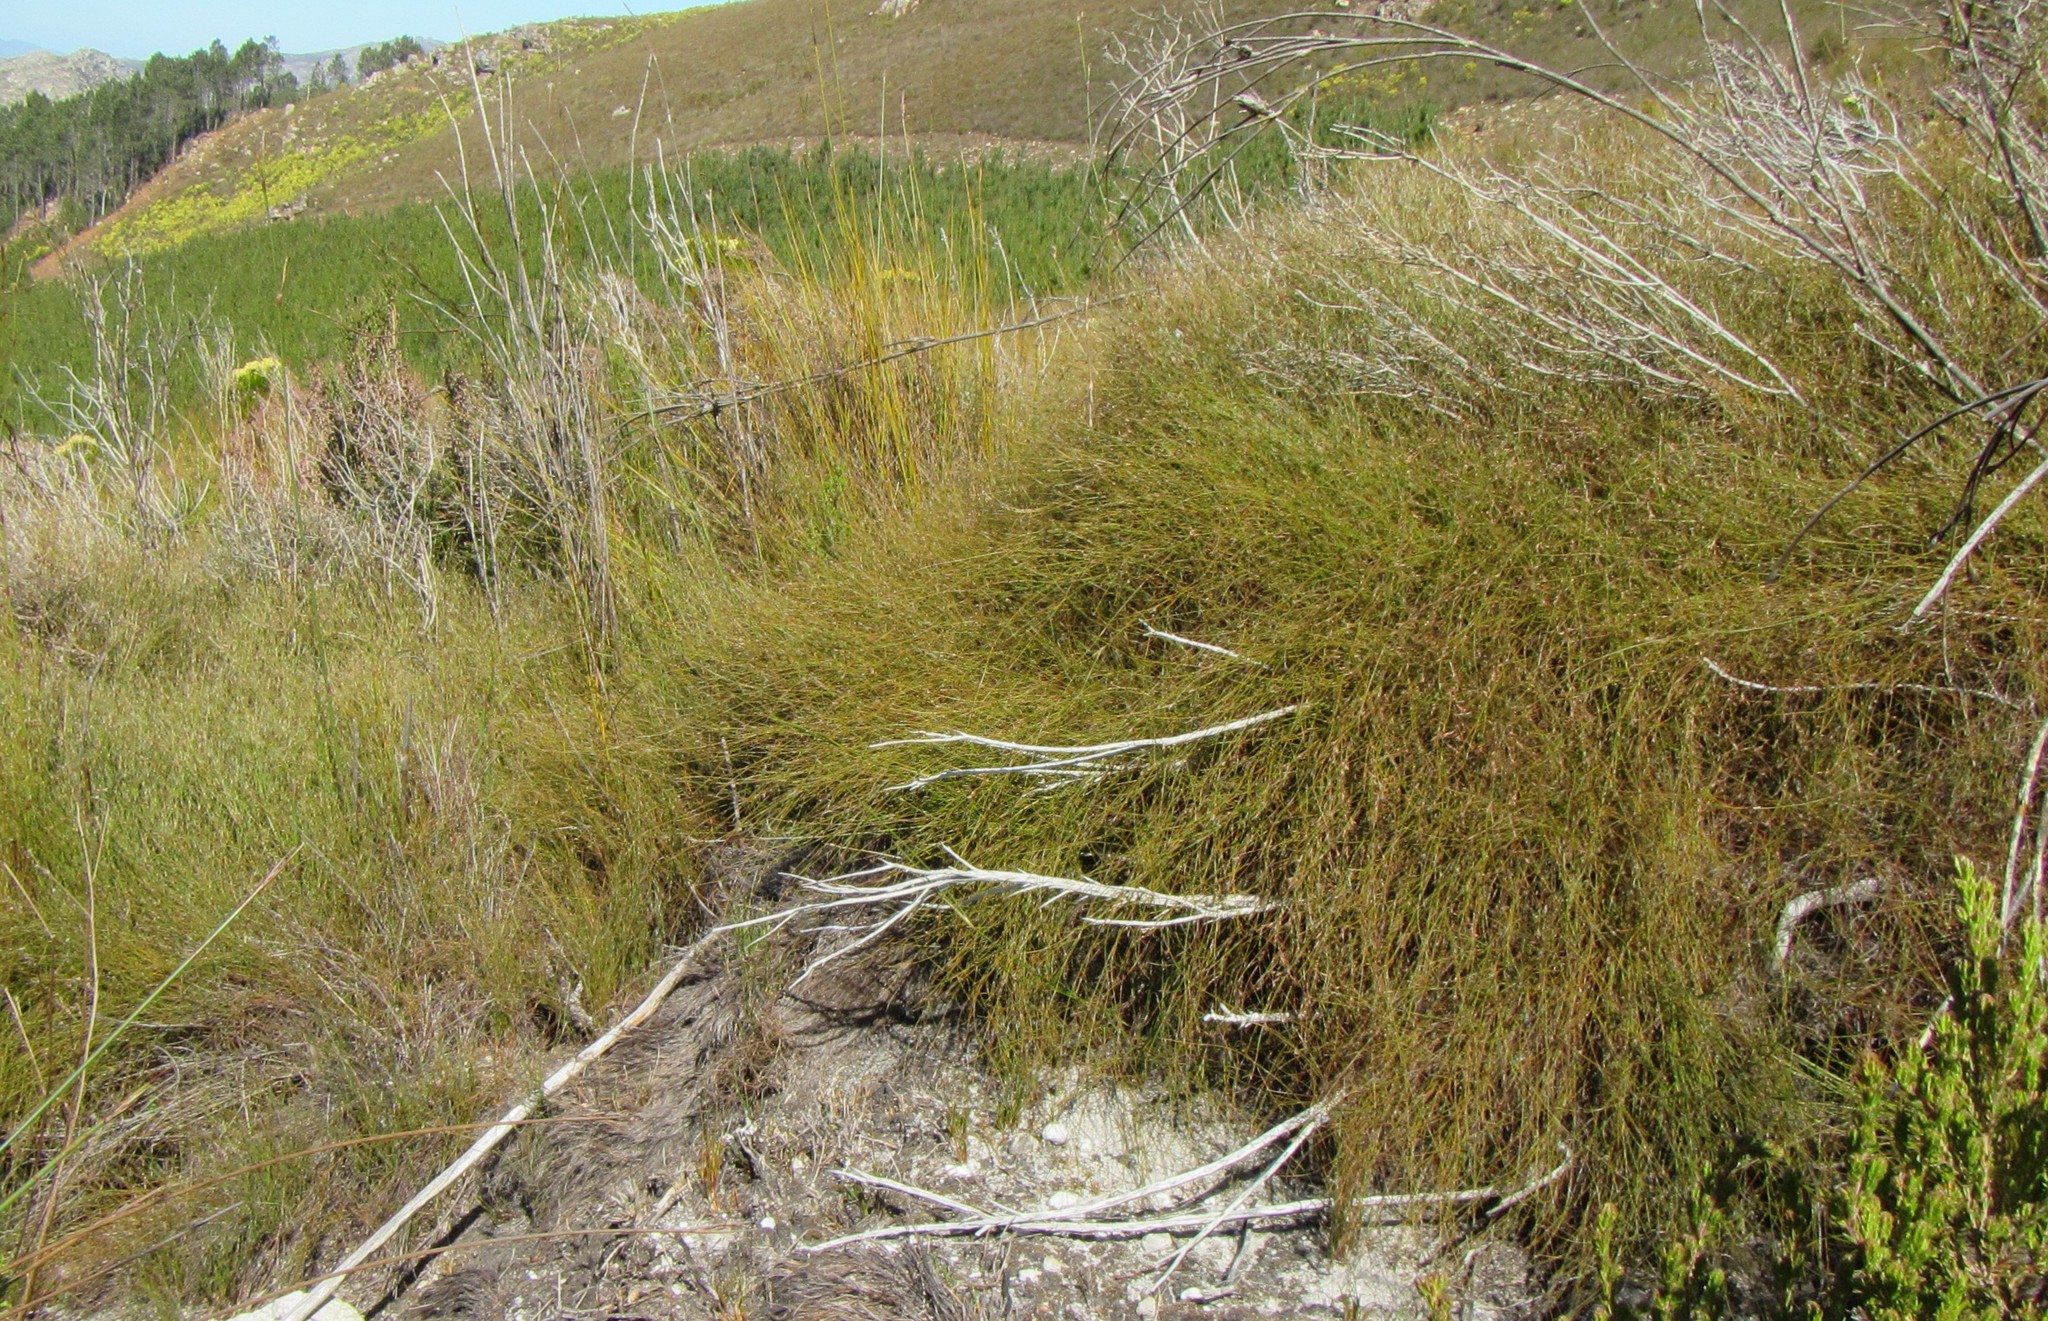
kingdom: Plantae
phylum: Tracheophyta
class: Liliopsida
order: Poales
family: Restionaceae
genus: Anthochortus
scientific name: Anthochortus crinalis
